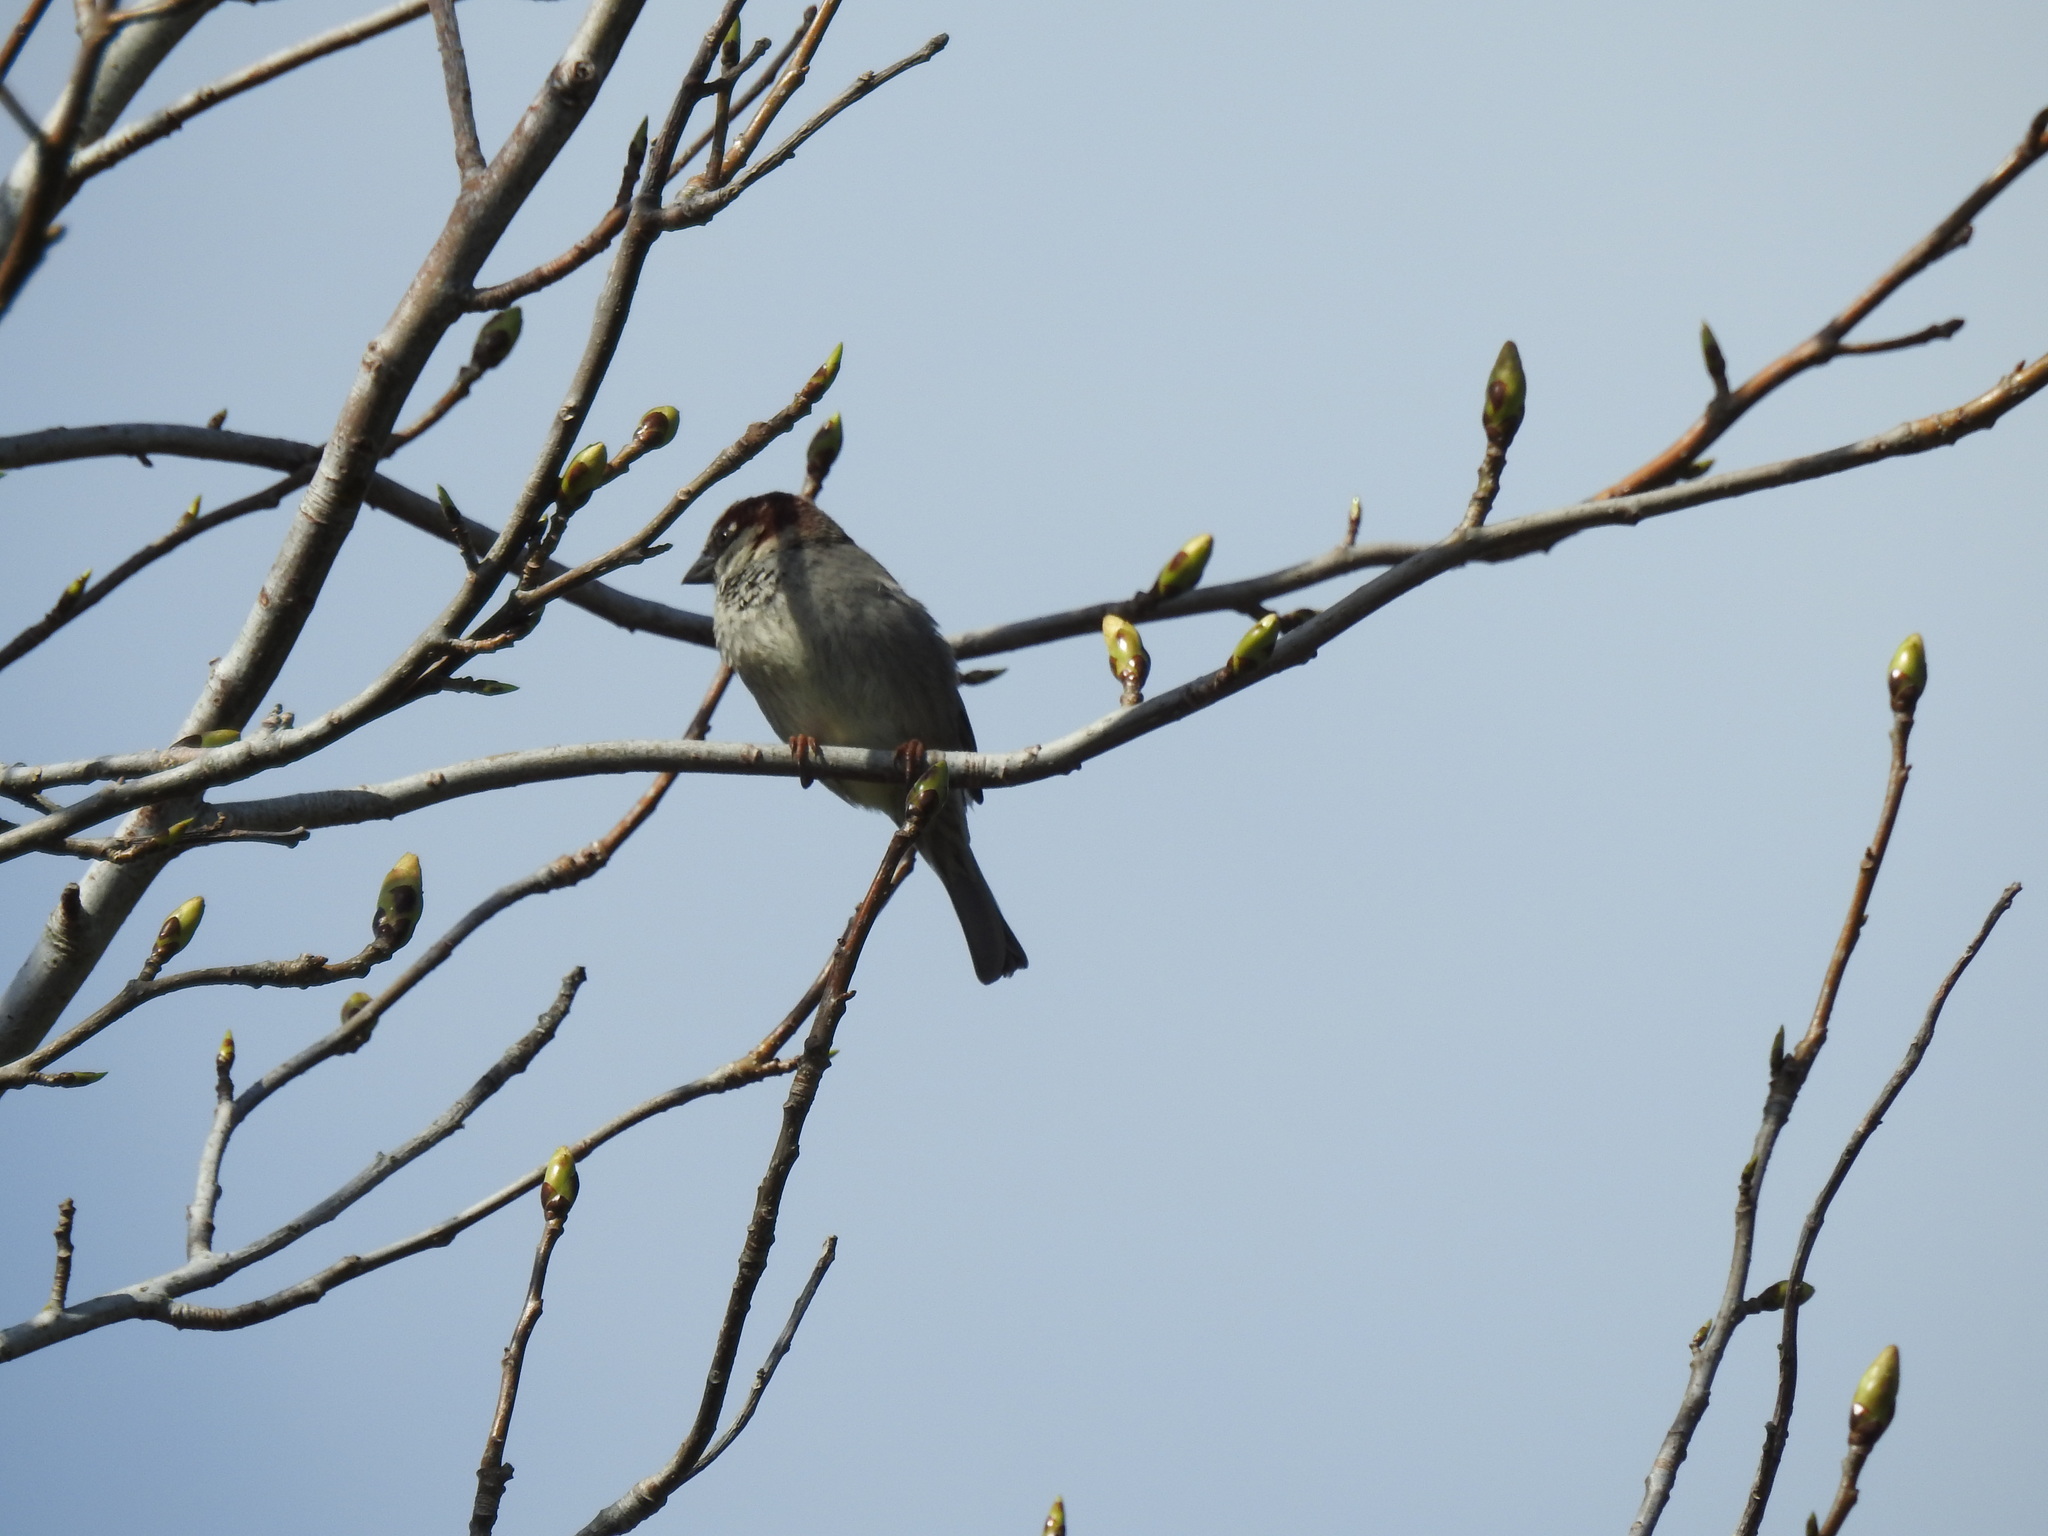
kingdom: Animalia
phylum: Chordata
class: Aves
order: Passeriformes
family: Passeridae
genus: Passer
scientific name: Passer domesticus
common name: House sparrow
